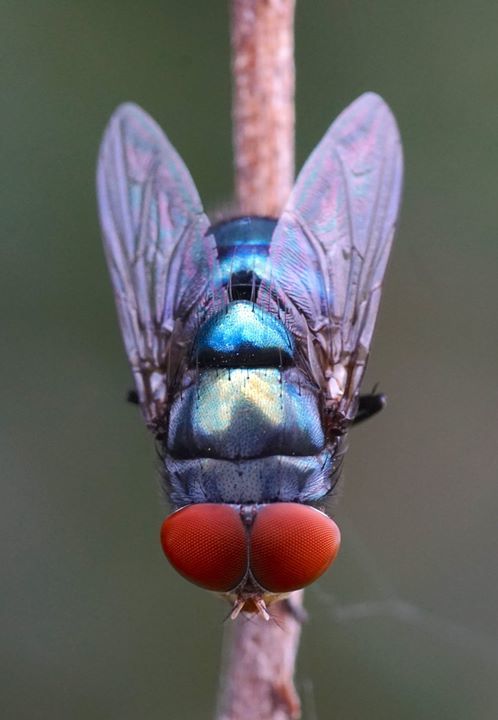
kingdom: Animalia
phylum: Arthropoda
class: Insecta
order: Diptera
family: Calliphoridae
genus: Chrysomya
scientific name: Chrysomya megacephala
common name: Blow fly
